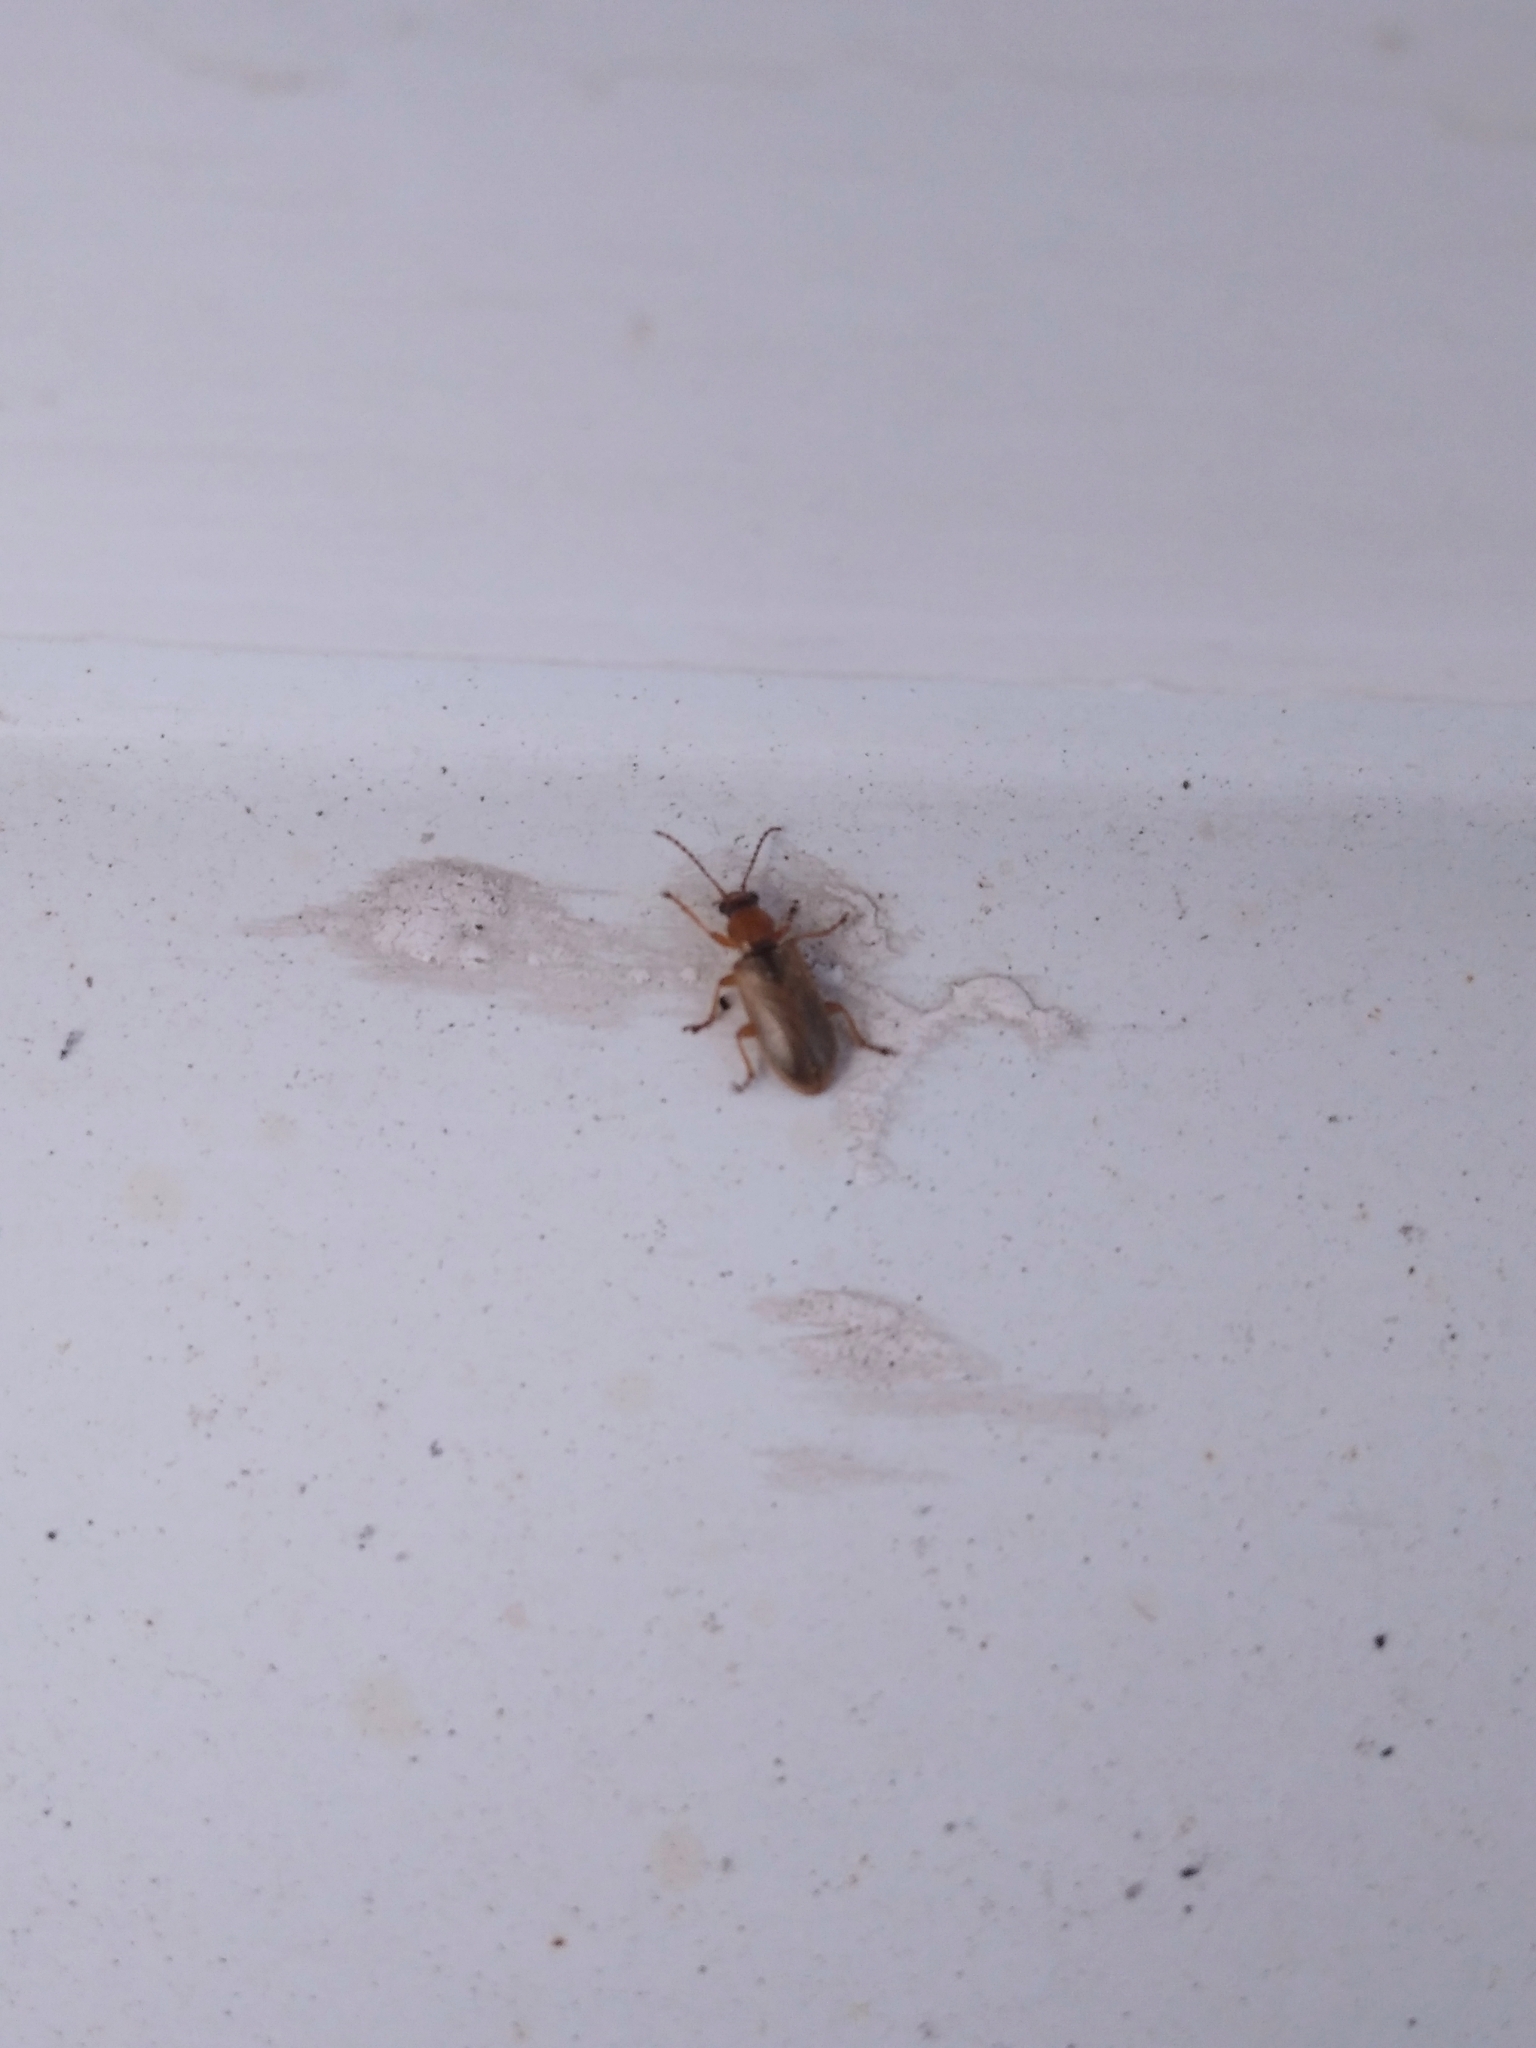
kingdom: Animalia
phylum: Arthropoda
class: Insecta
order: Coleoptera
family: Orsodacnidae
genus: Orsodacne
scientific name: Orsodacne cerasi
